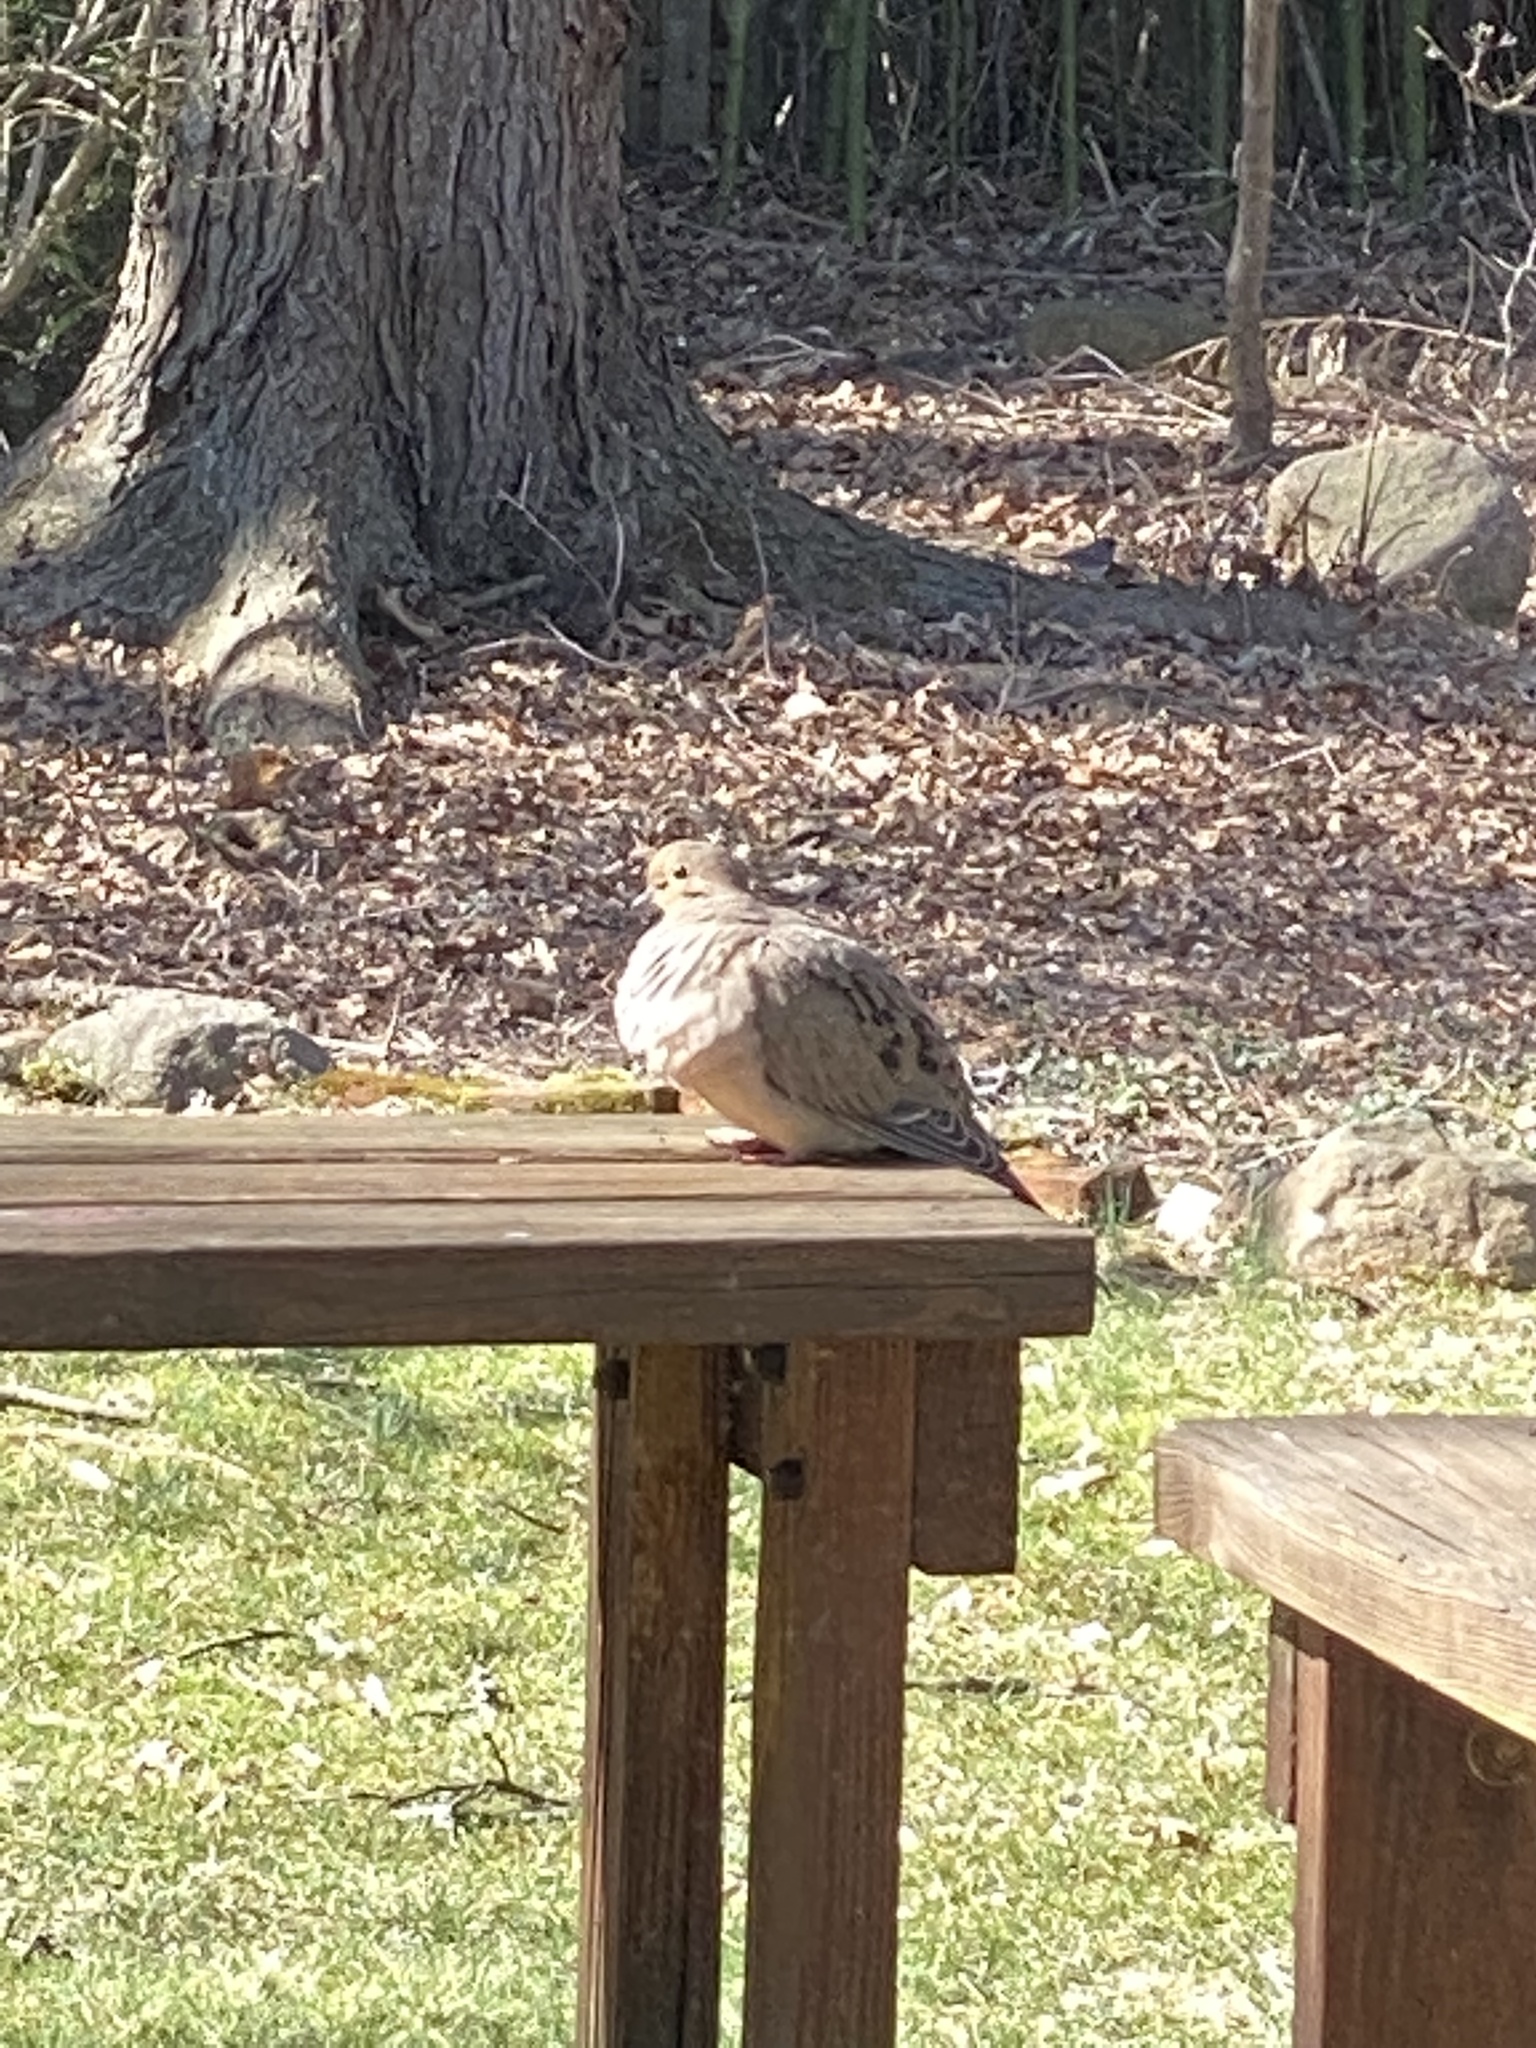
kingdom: Animalia
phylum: Chordata
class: Aves
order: Columbiformes
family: Columbidae
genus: Zenaida
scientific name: Zenaida macroura
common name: Mourning dove
